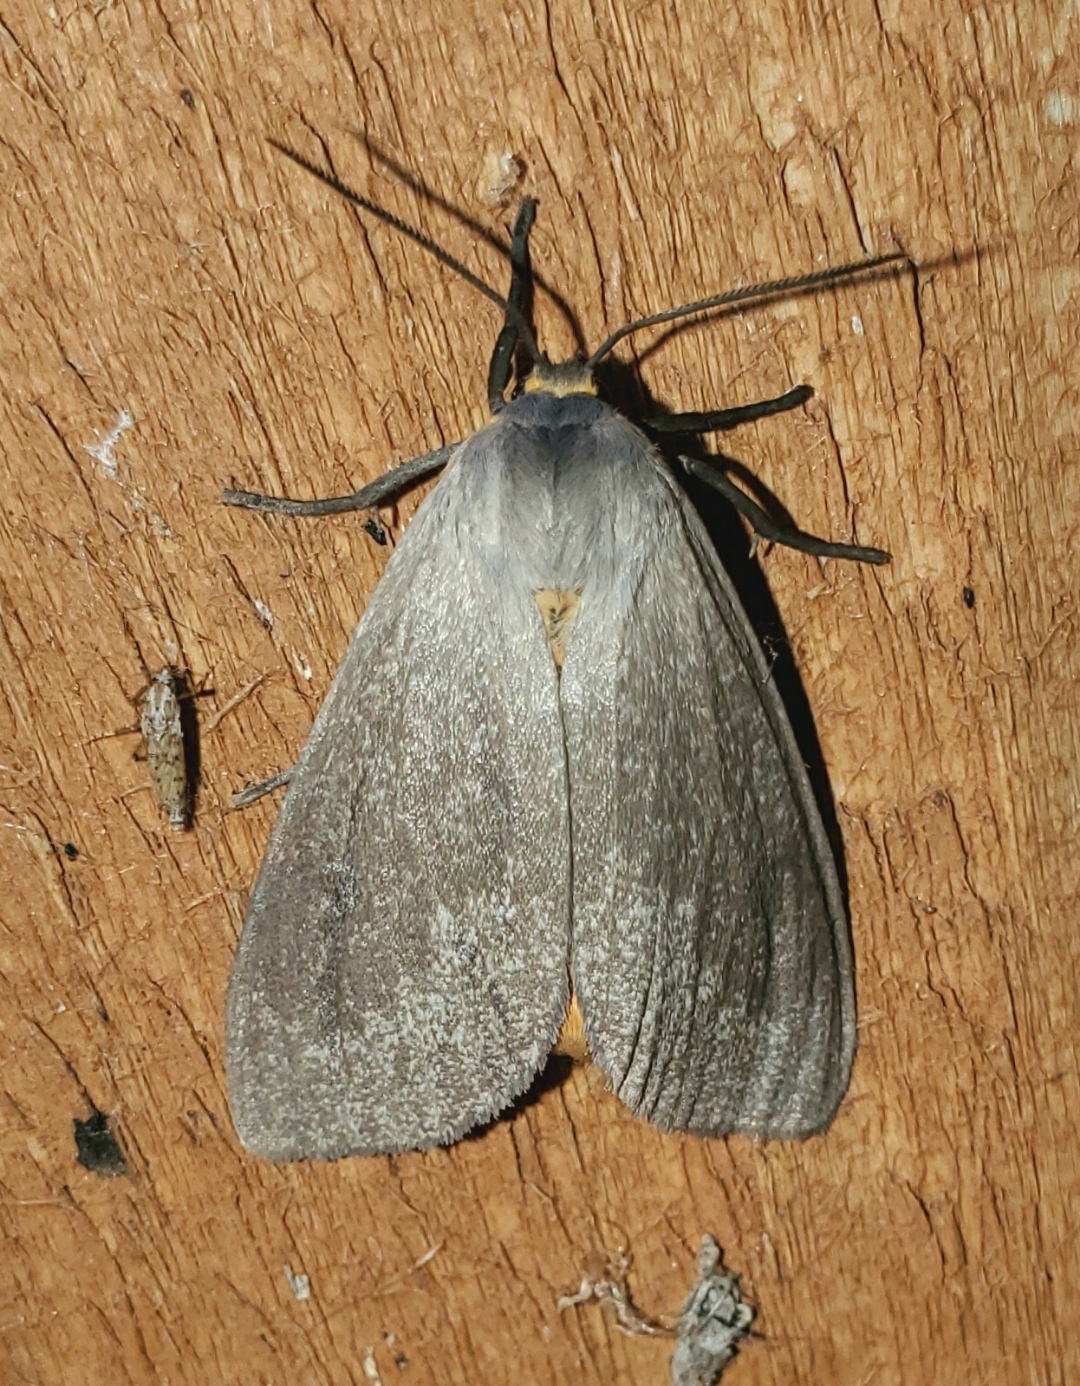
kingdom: Animalia
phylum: Arthropoda
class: Insecta
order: Lepidoptera
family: Erebidae
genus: Euchaetes
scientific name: Euchaetes egle
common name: Milkweed tussock moth
